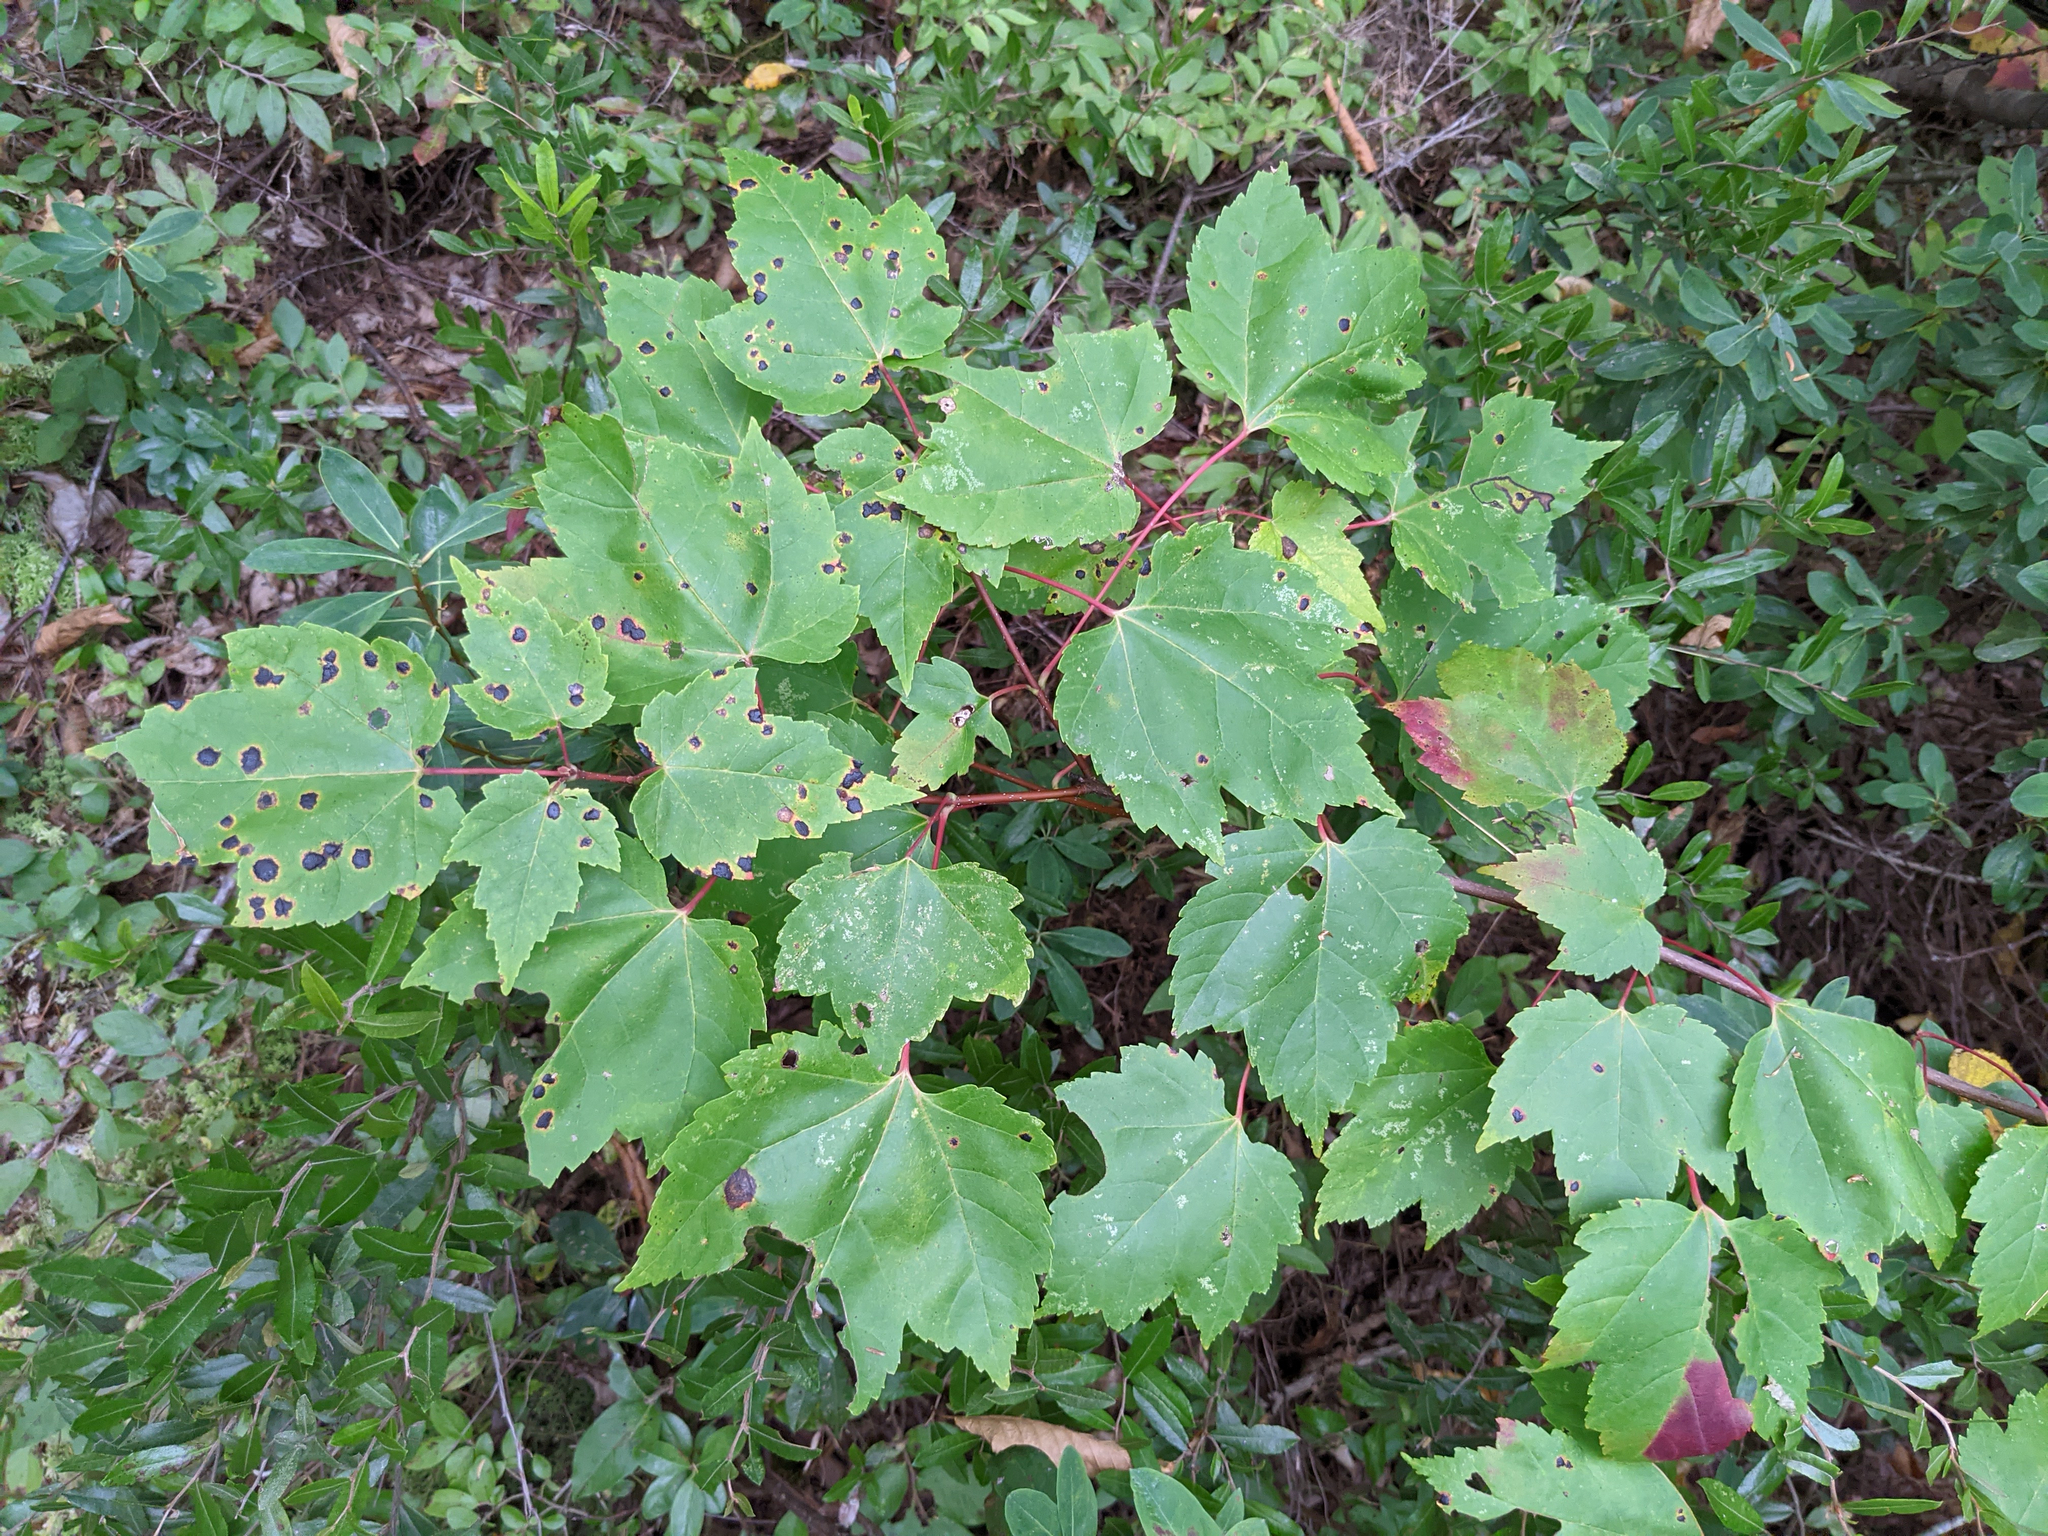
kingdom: Plantae
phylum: Tracheophyta
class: Magnoliopsida
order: Sapindales
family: Sapindaceae
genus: Acer
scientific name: Acer rubrum
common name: Red maple
